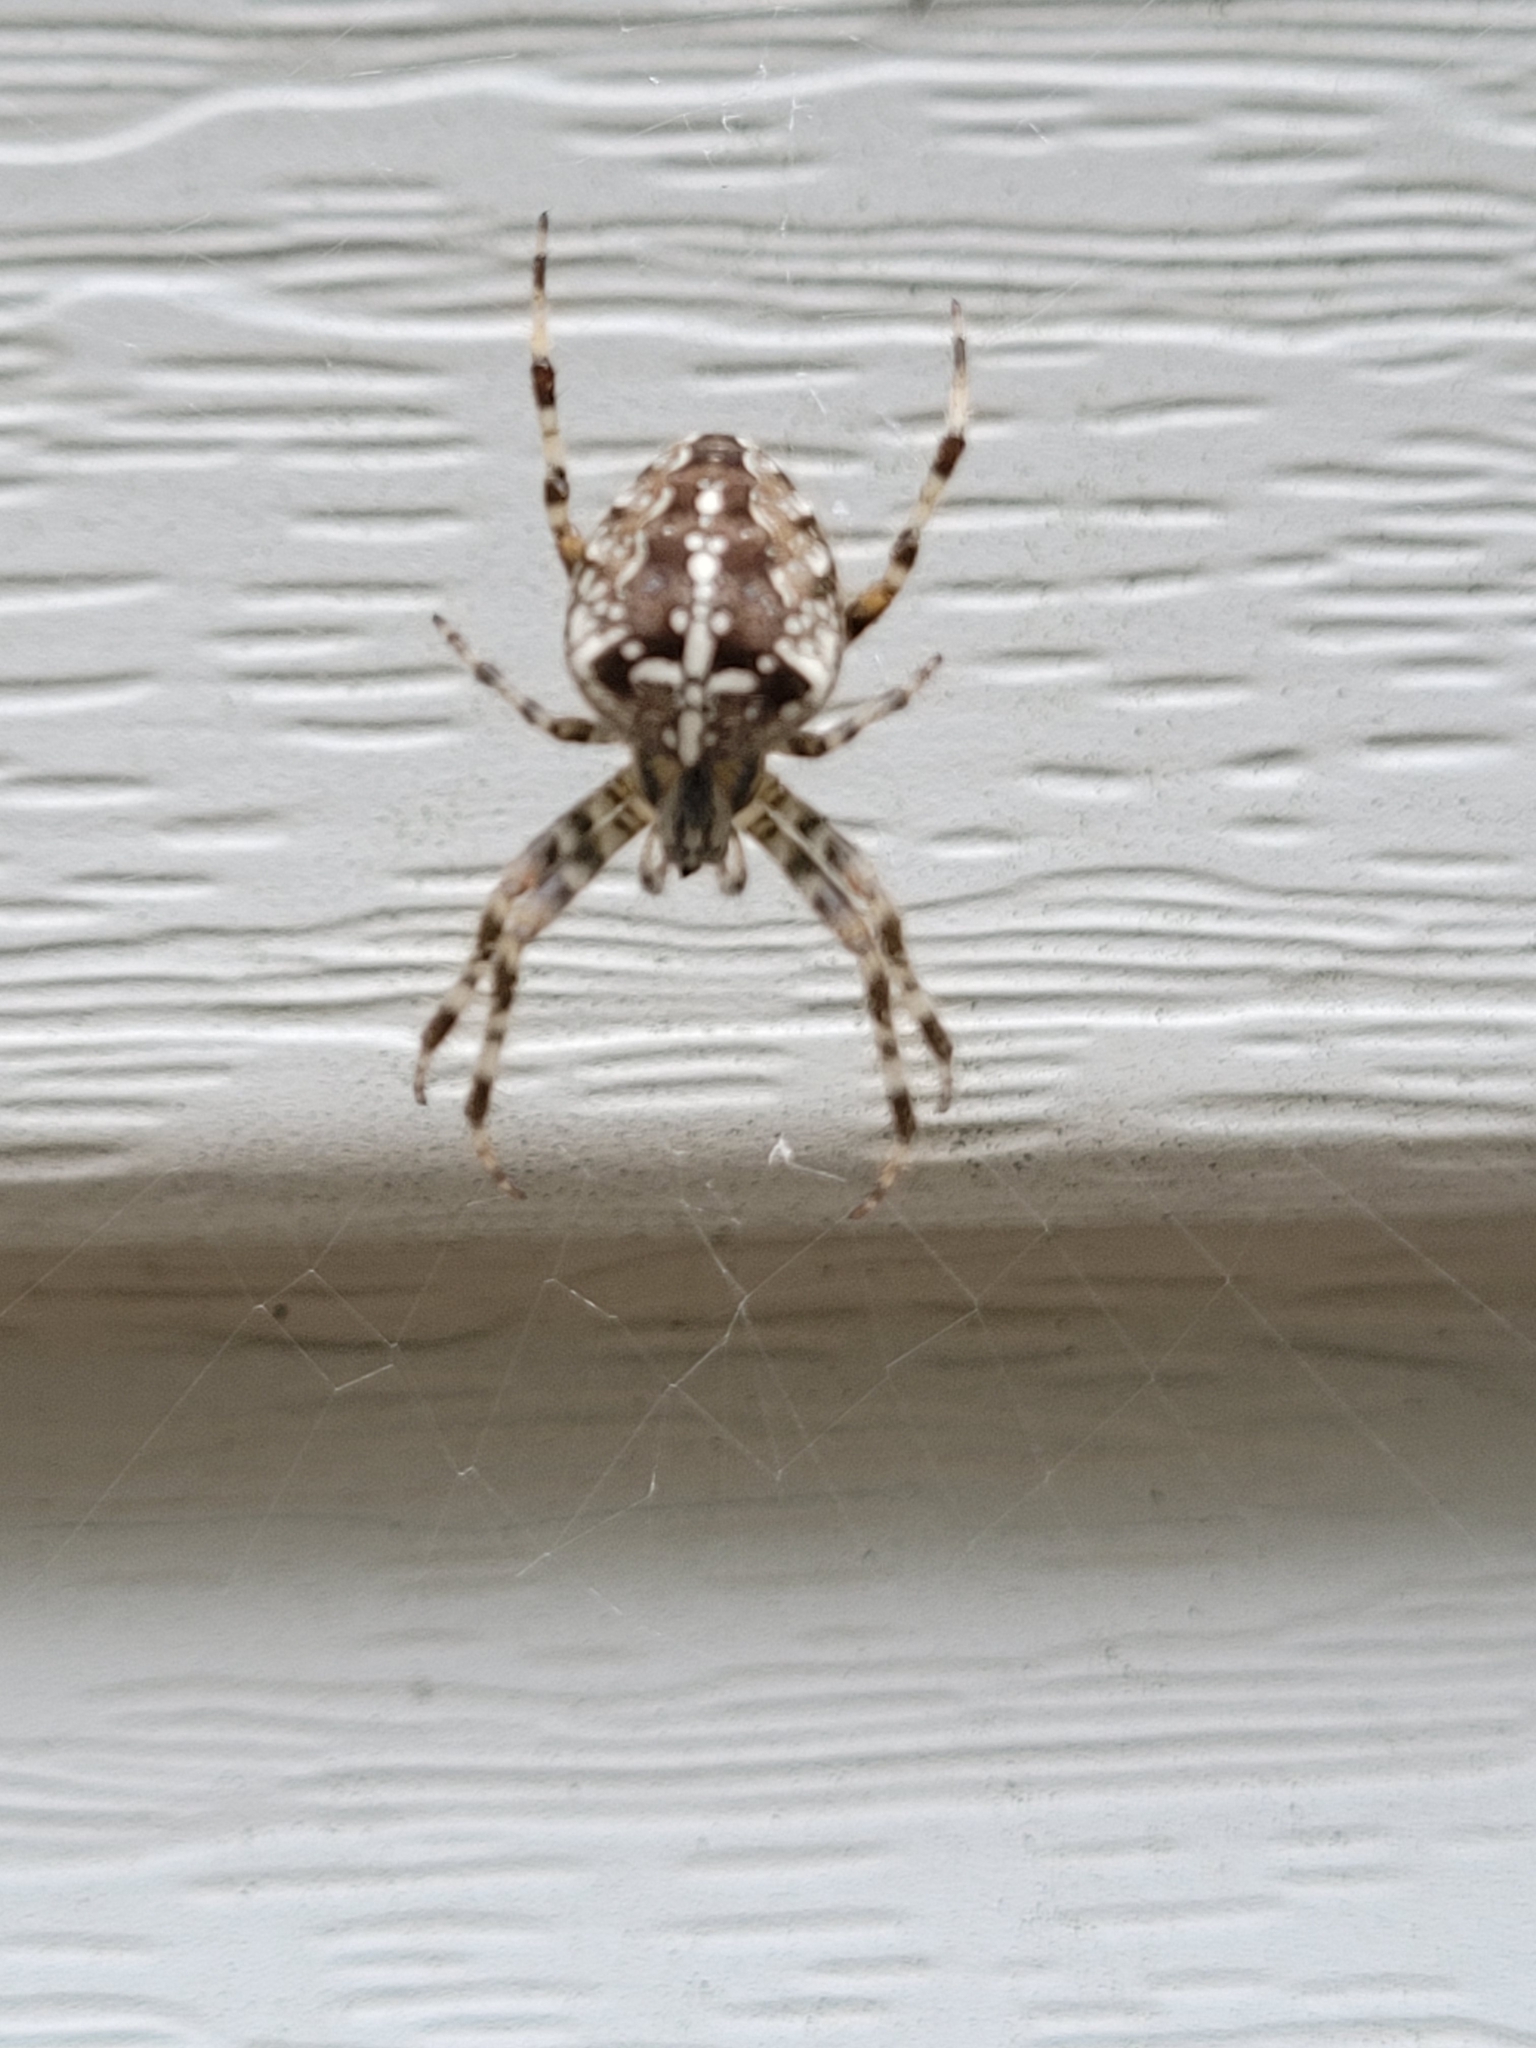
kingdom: Animalia
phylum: Arthropoda
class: Arachnida
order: Araneae
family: Araneidae
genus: Araneus
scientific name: Araneus diadematus
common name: Cross orbweaver
